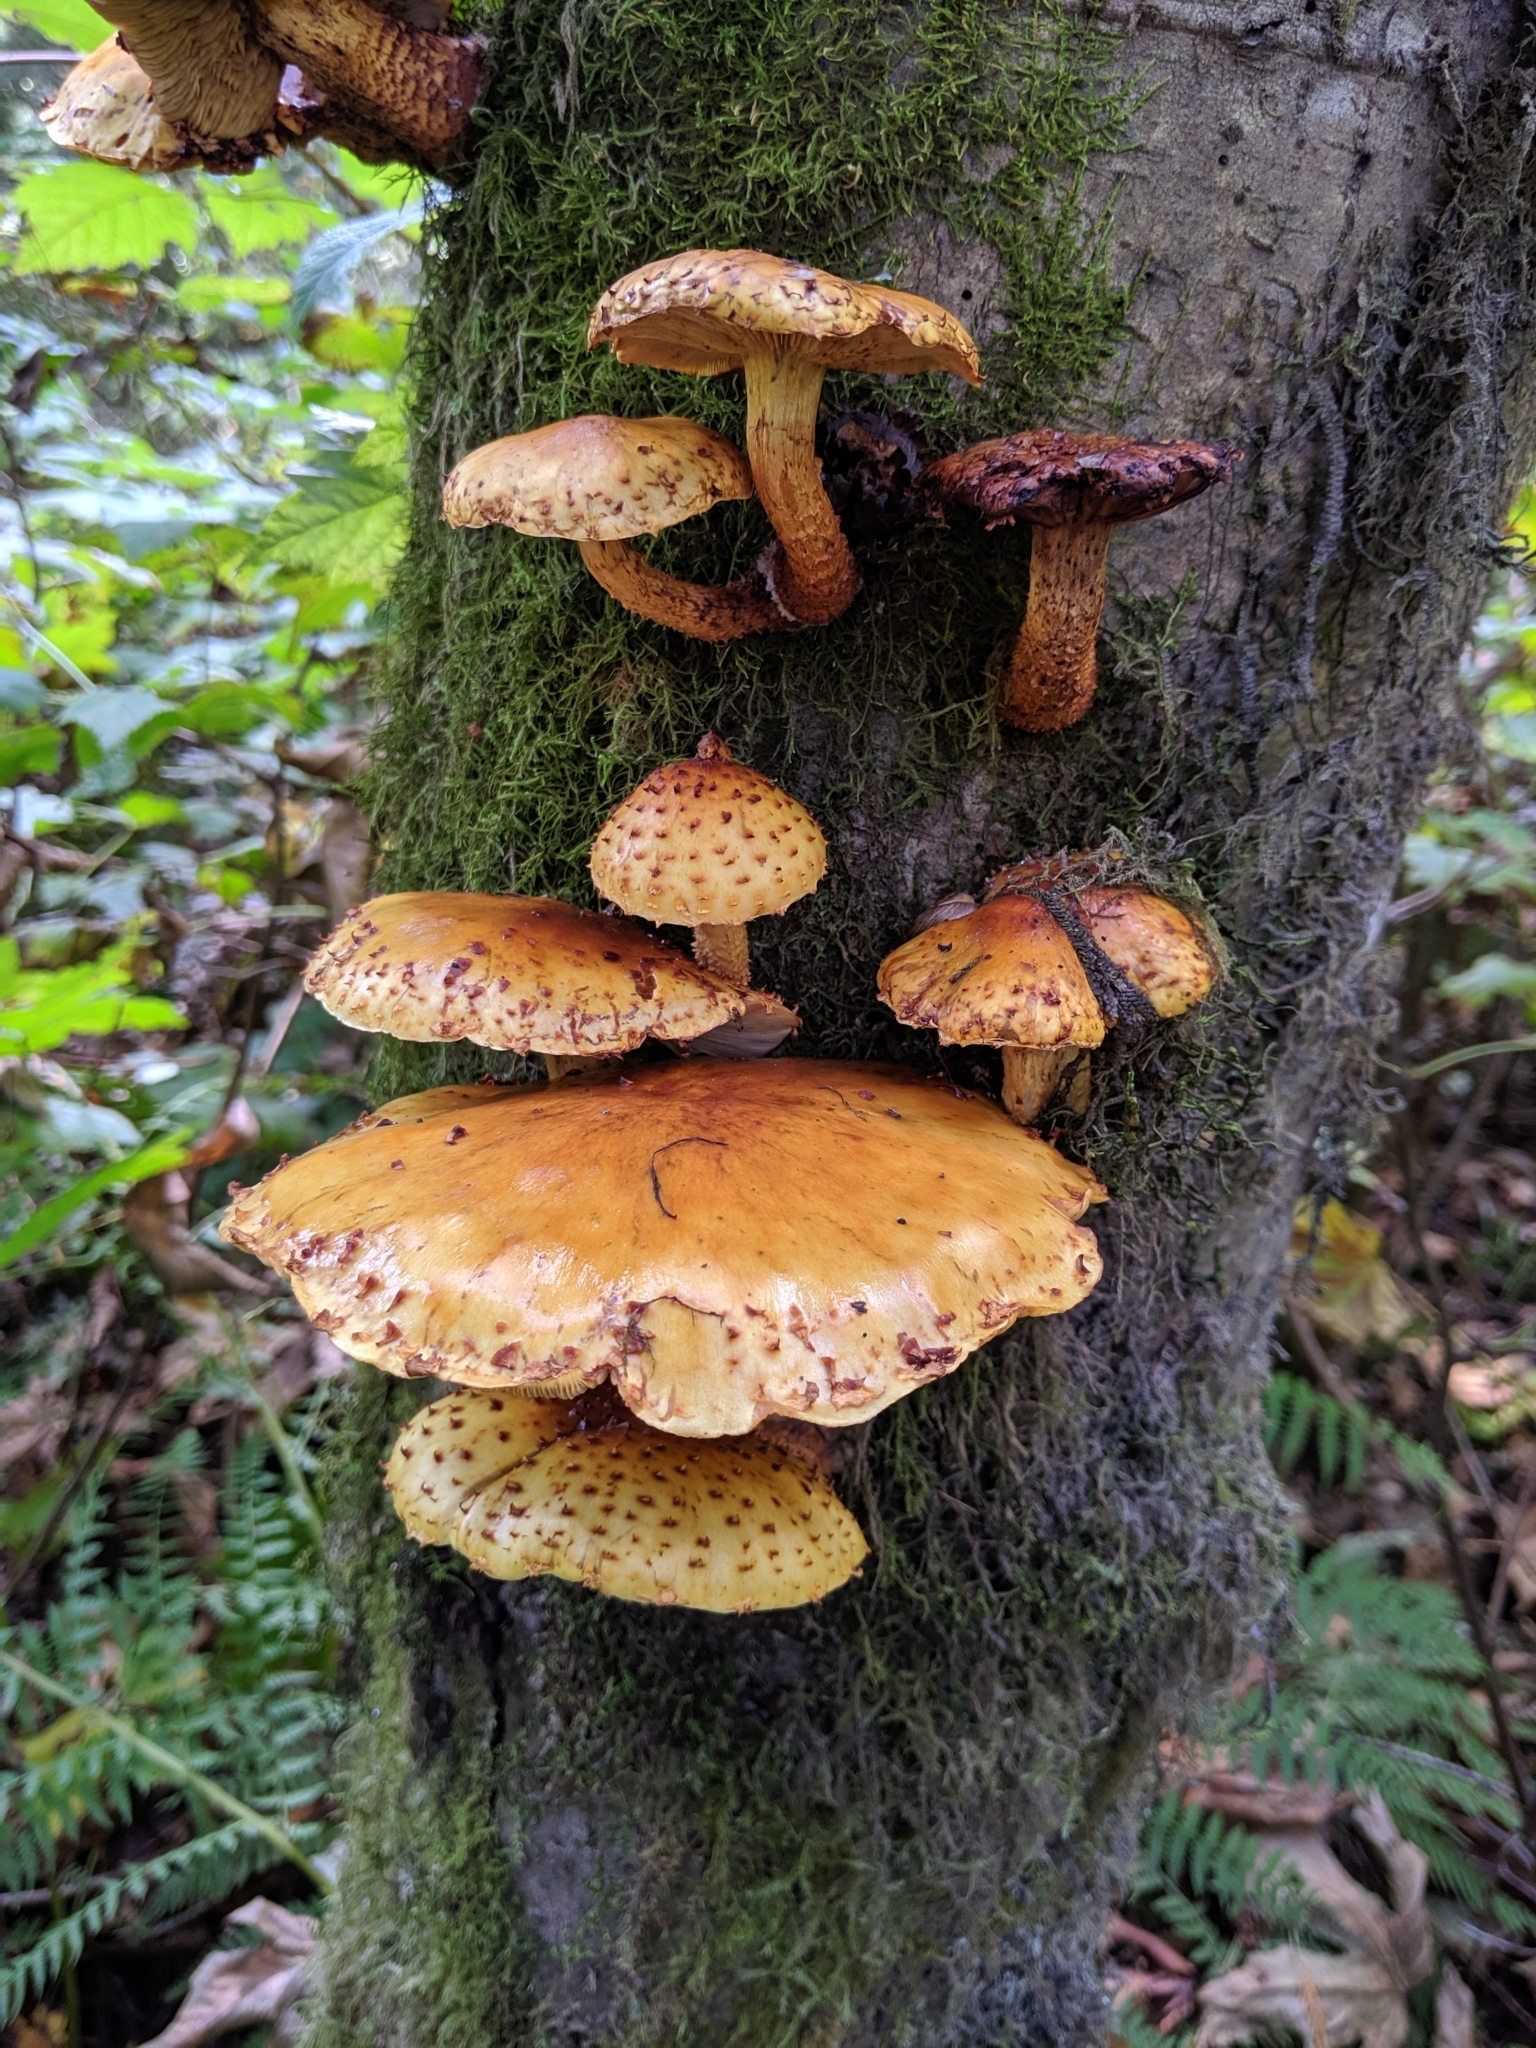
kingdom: Fungi
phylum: Basidiomycota
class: Agaricomycetes
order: Agaricales
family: Strophariaceae
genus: Pholiota
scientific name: Pholiota aurivella
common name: Golden scalycap
